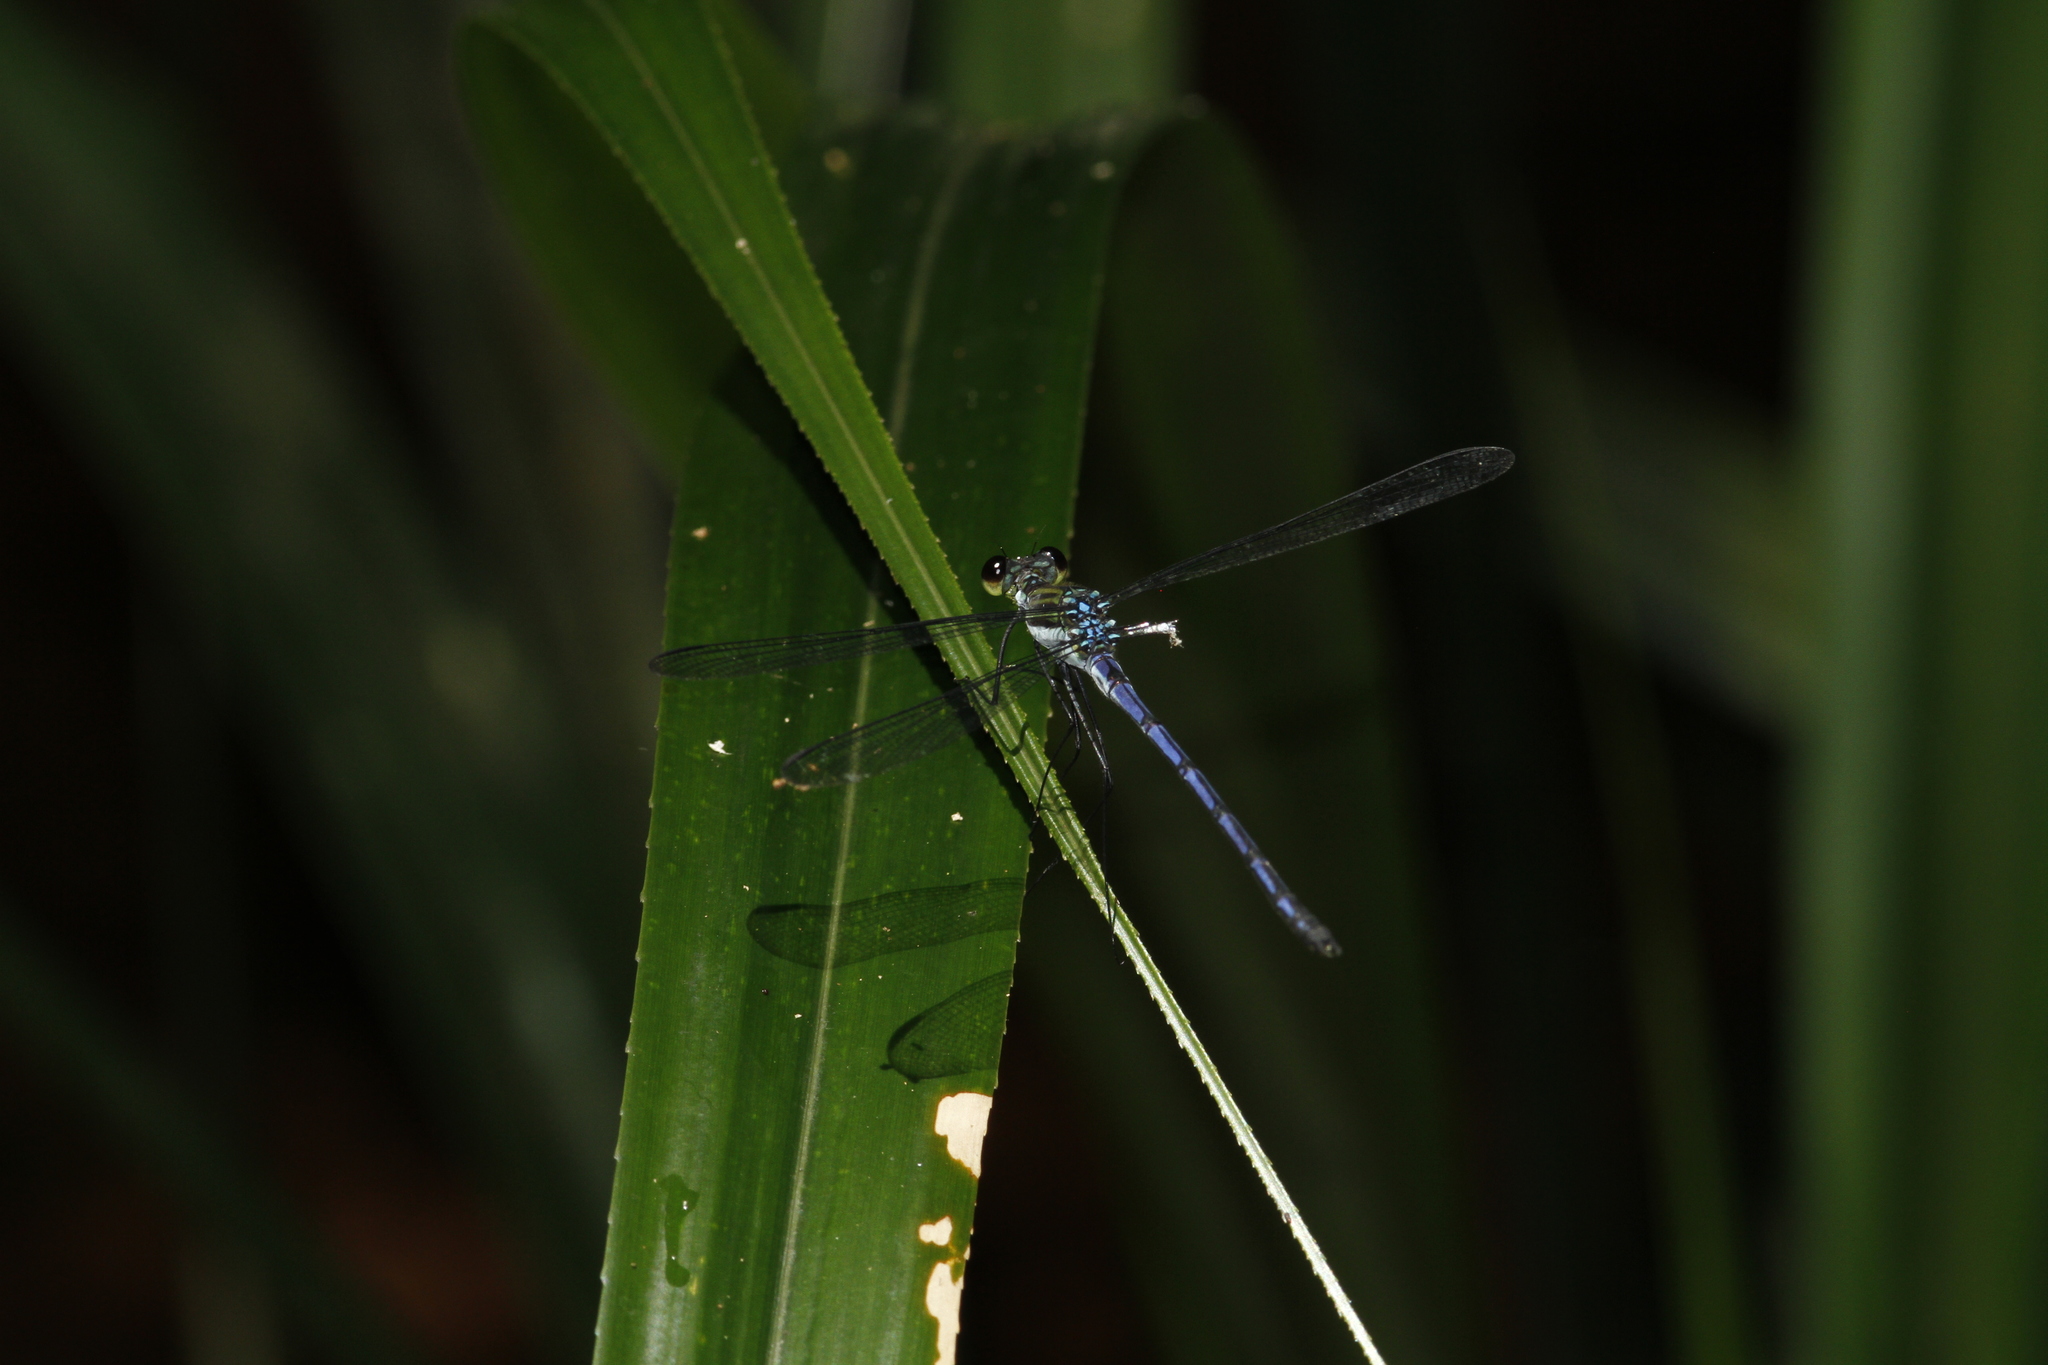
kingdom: Animalia
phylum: Arthropoda
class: Insecta
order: Odonata
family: Dicteriadidae
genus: Heliocharis
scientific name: Heliocharis amazona
